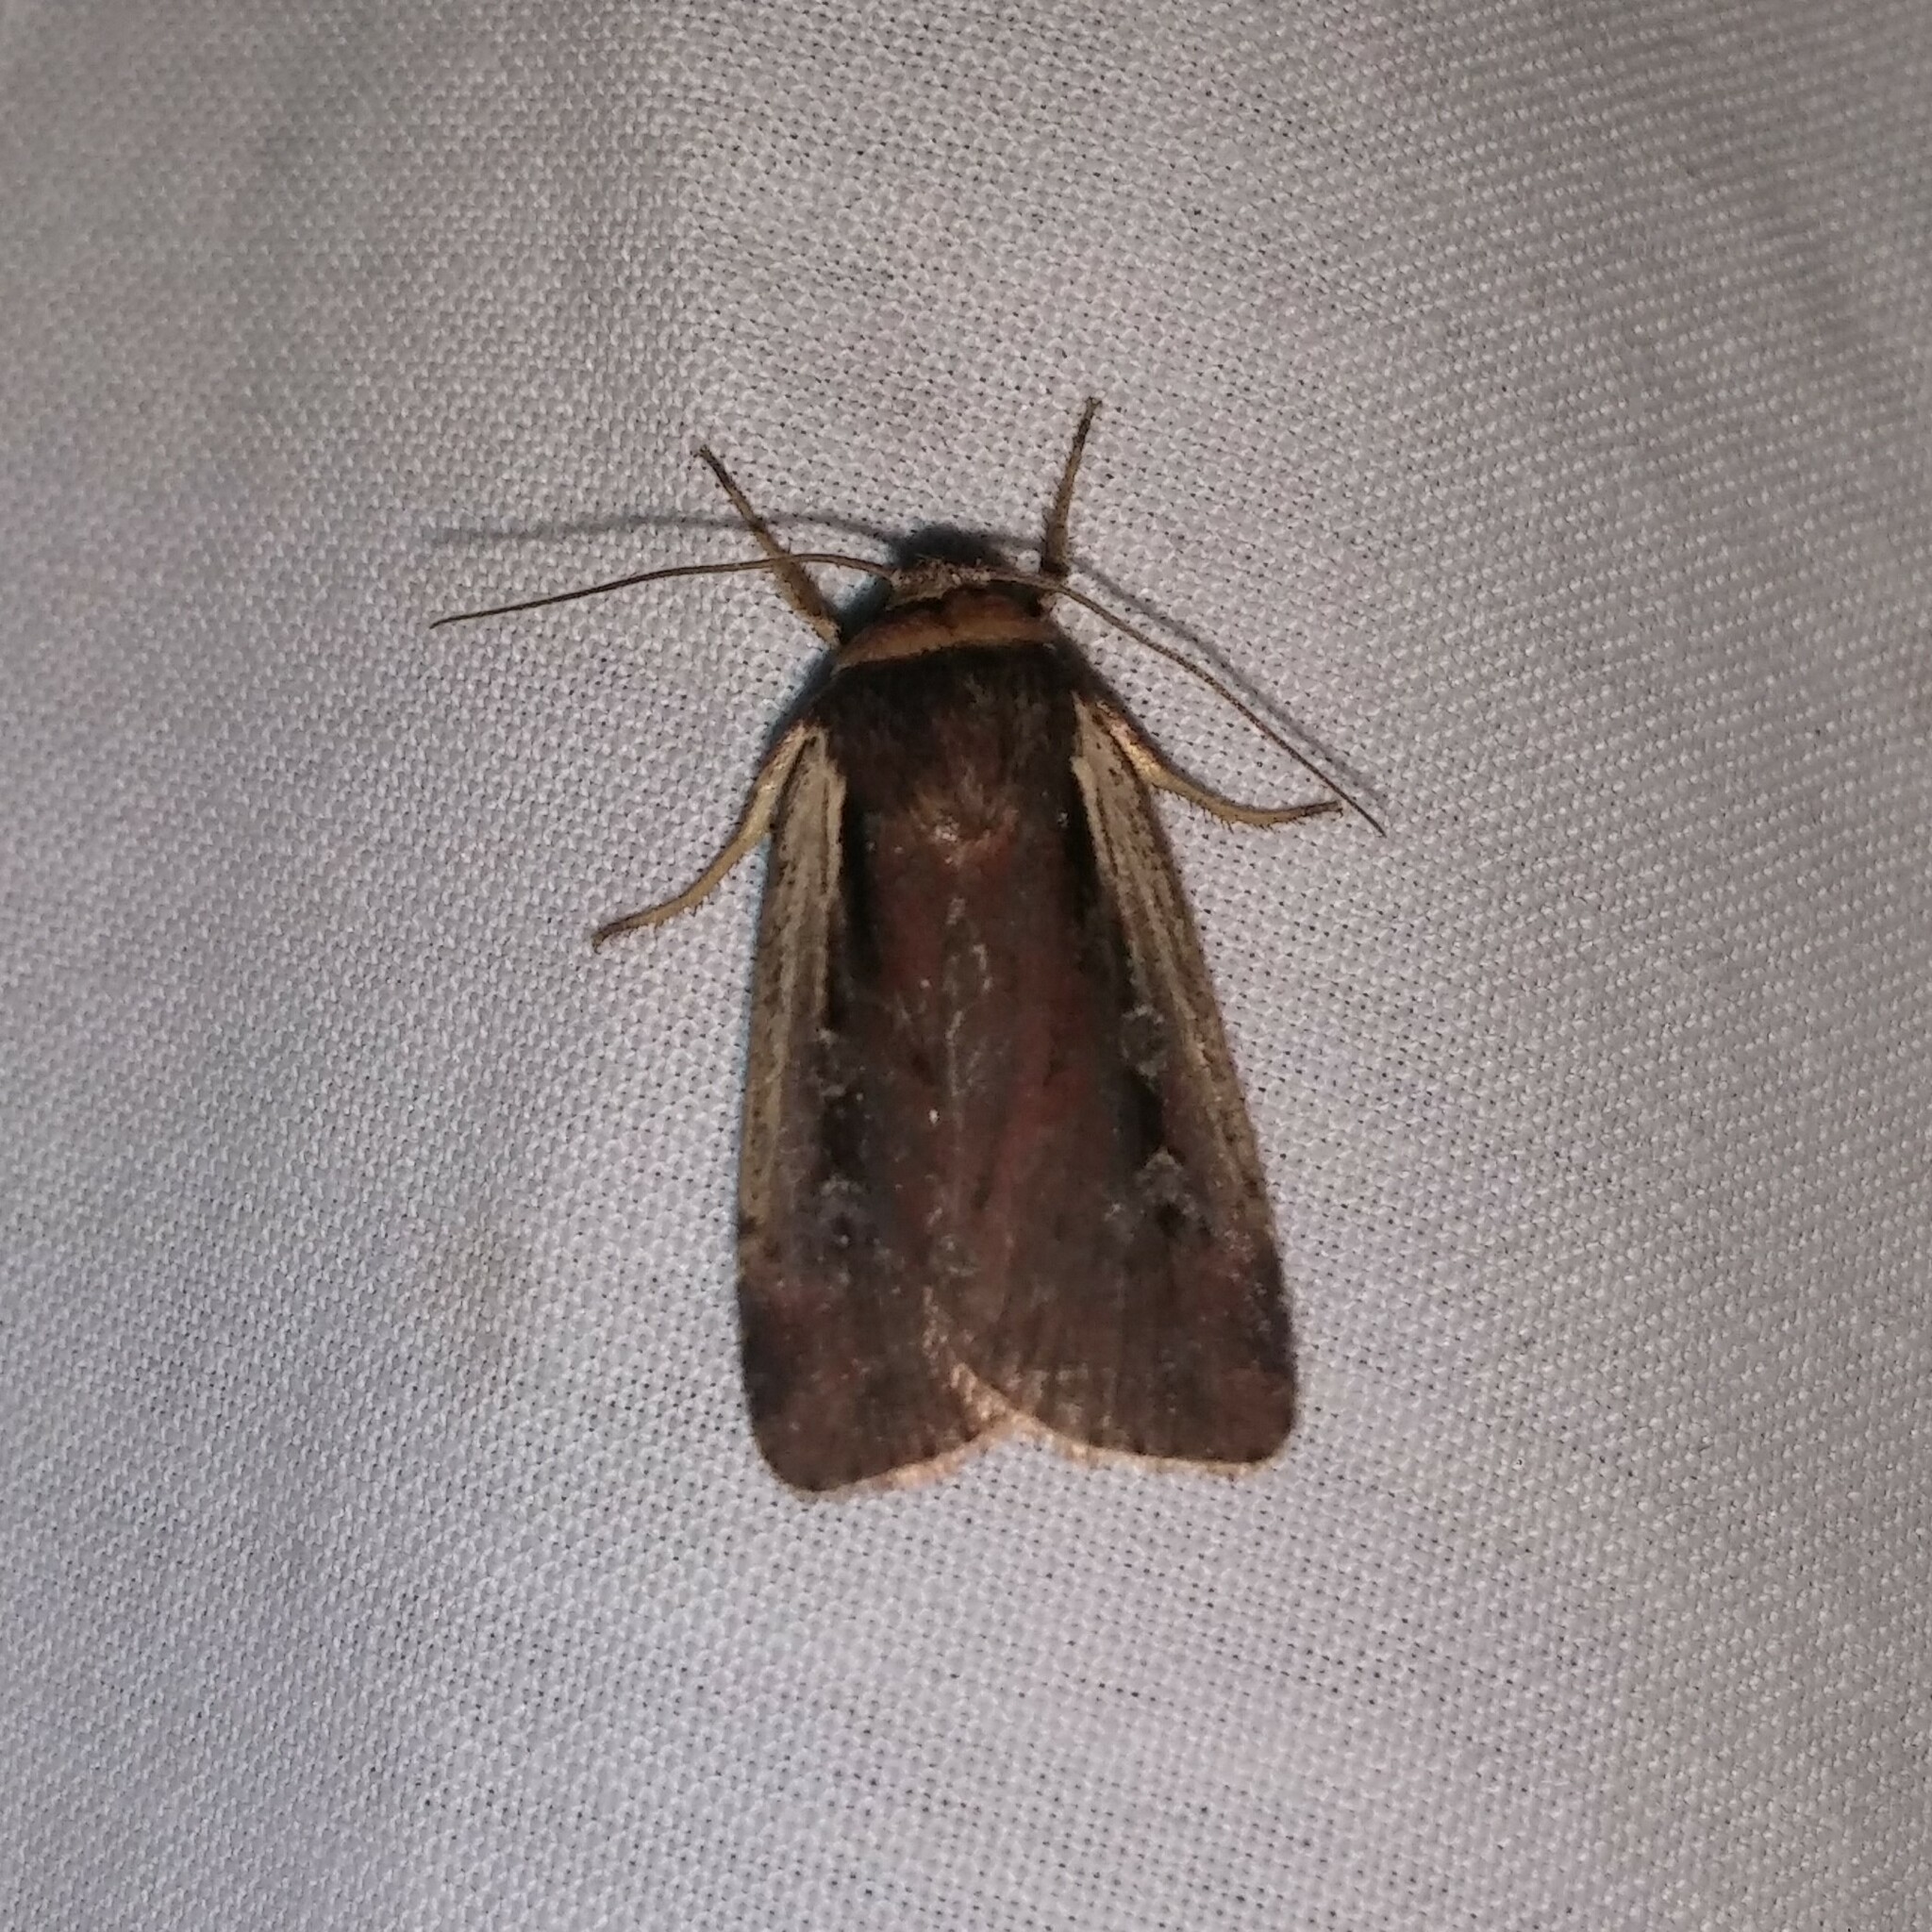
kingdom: Animalia
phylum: Arthropoda
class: Insecta
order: Lepidoptera
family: Noctuidae
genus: Ochropleura
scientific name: Ochropleura implecta
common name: Flame-shouldered dart
